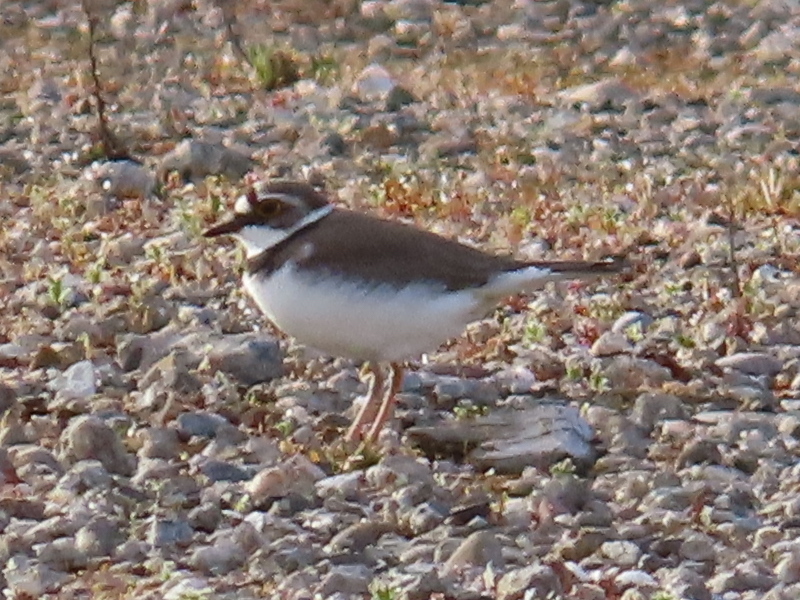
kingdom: Animalia
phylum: Chordata
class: Aves
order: Charadriiformes
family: Charadriidae
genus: Charadrius
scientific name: Charadrius dubius
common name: Little ringed plover
